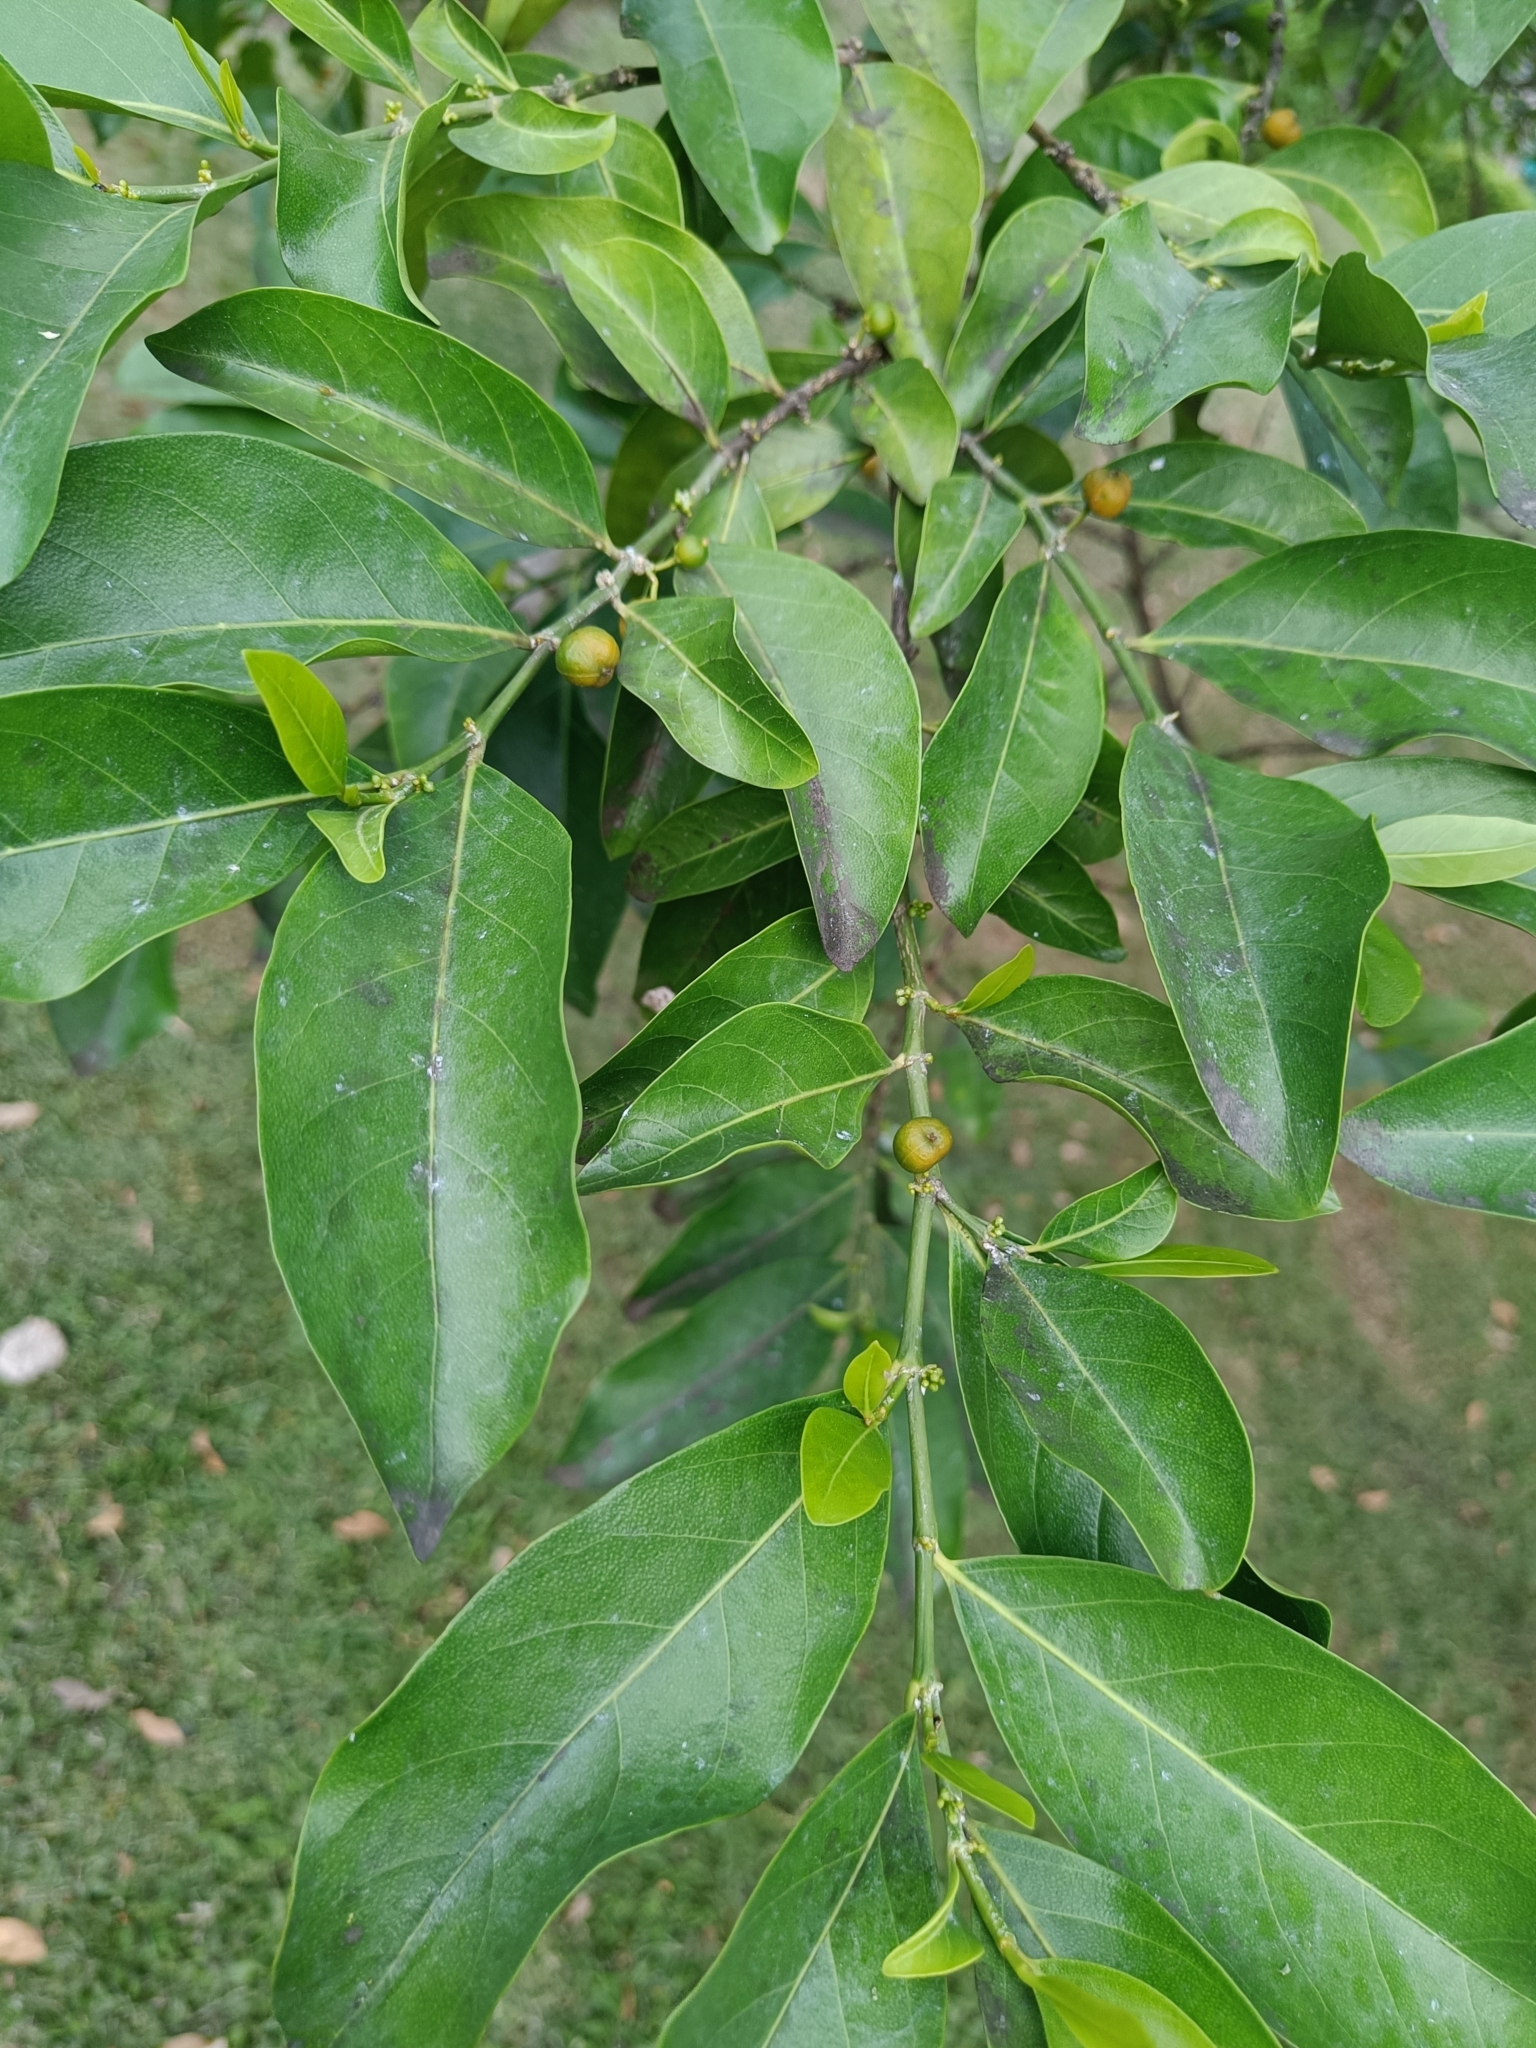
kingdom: Plantae
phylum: Tracheophyta
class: Magnoliopsida
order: Malpighiales
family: Euphorbiaceae
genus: Suregada
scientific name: Suregada multiflora
